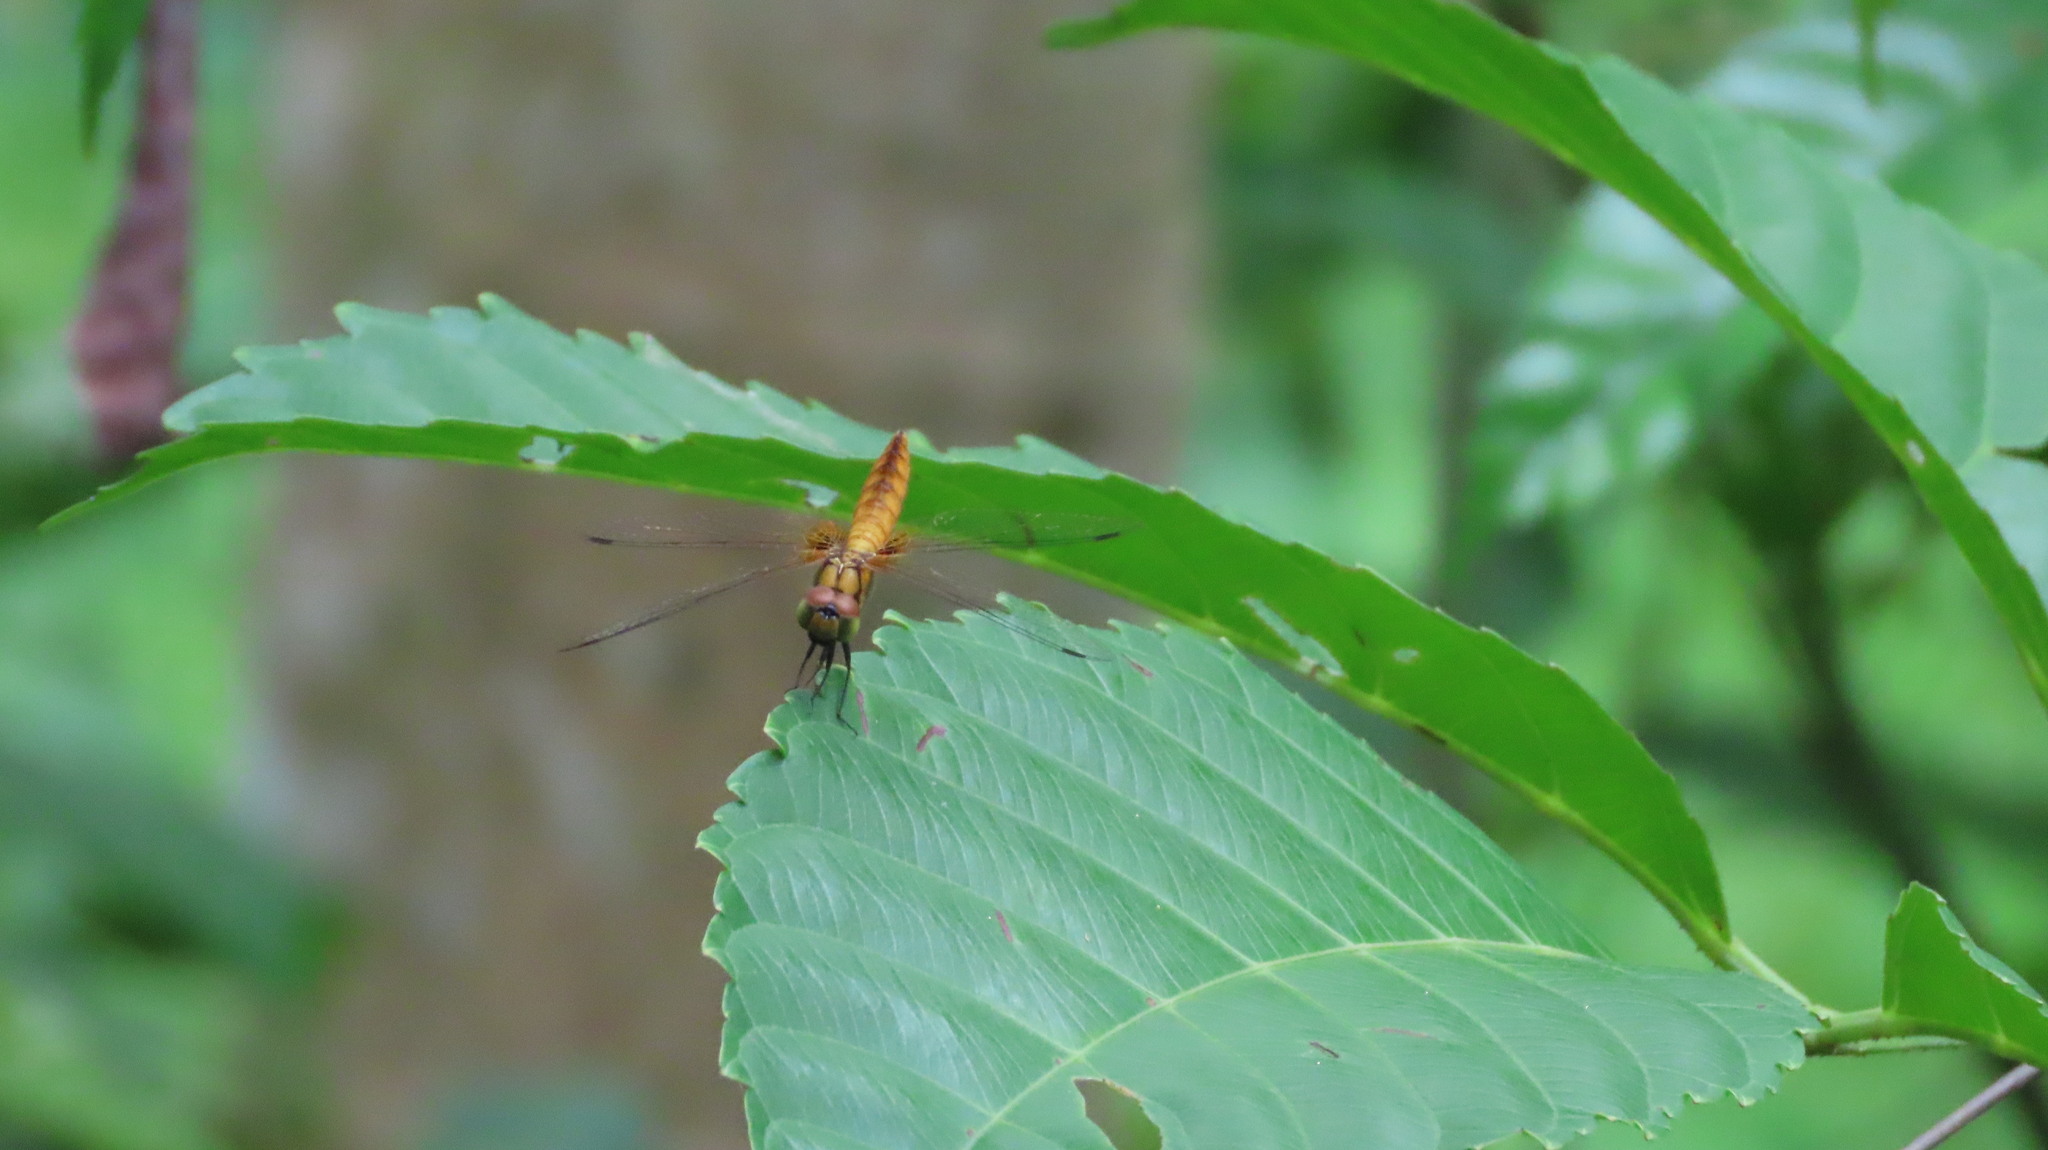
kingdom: Animalia
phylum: Arthropoda
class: Insecta
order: Odonata
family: Libellulidae
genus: Aethriamanta
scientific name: Aethriamanta brevipennis
